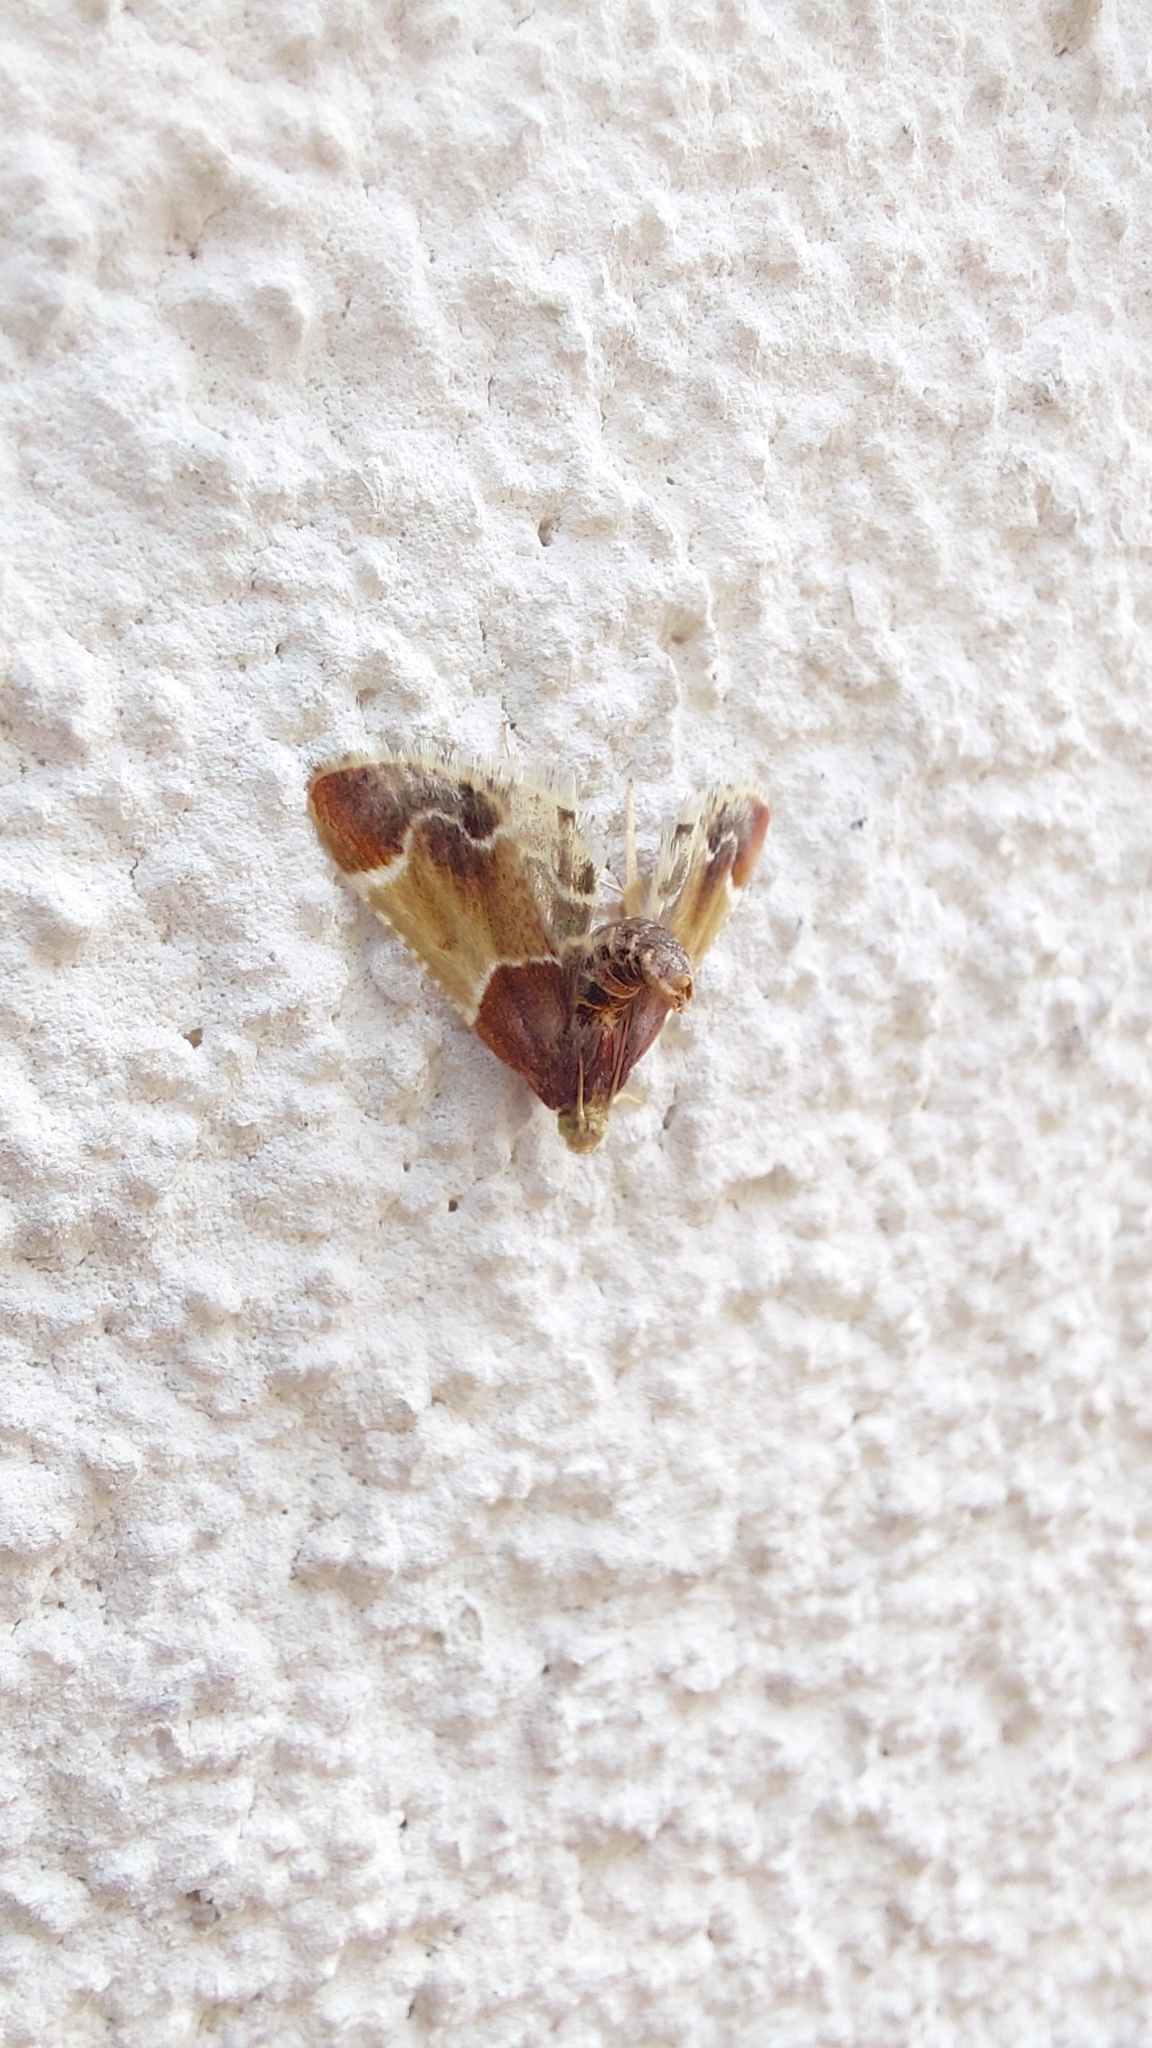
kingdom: Animalia
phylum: Arthropoda
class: Insecta
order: Lepidoptera
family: Pyralidae
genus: Pyralis
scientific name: Pyralis farinalis
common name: Meal moth
